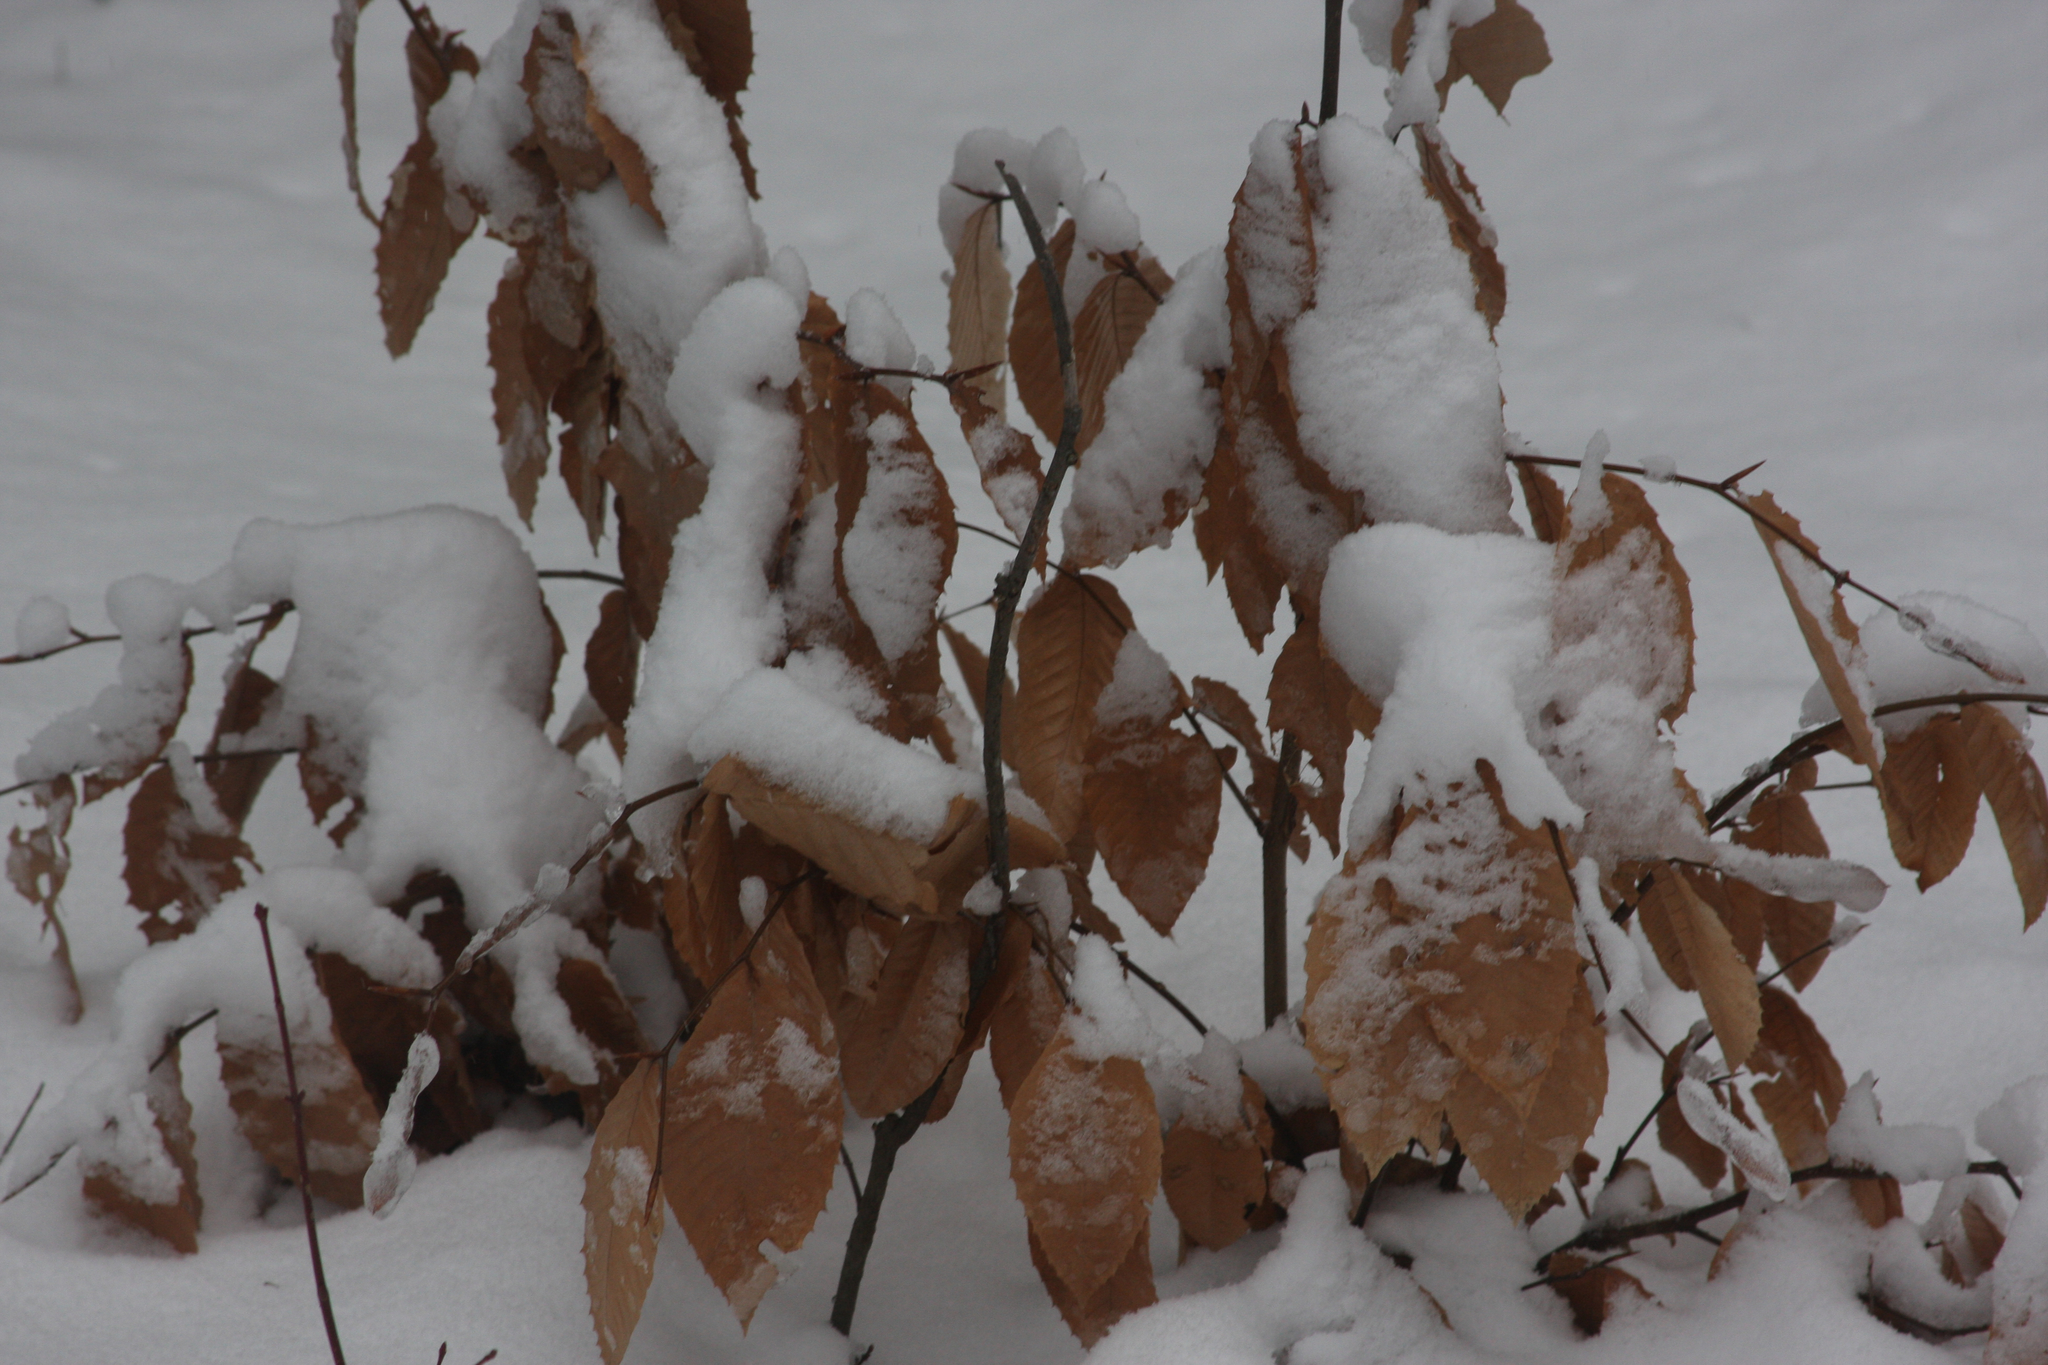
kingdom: Plantae
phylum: Tracheophyta
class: Magnoliopsida
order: Fagales
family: Fagaceae
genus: Fagus
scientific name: Fagus grandifolia
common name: American beech
